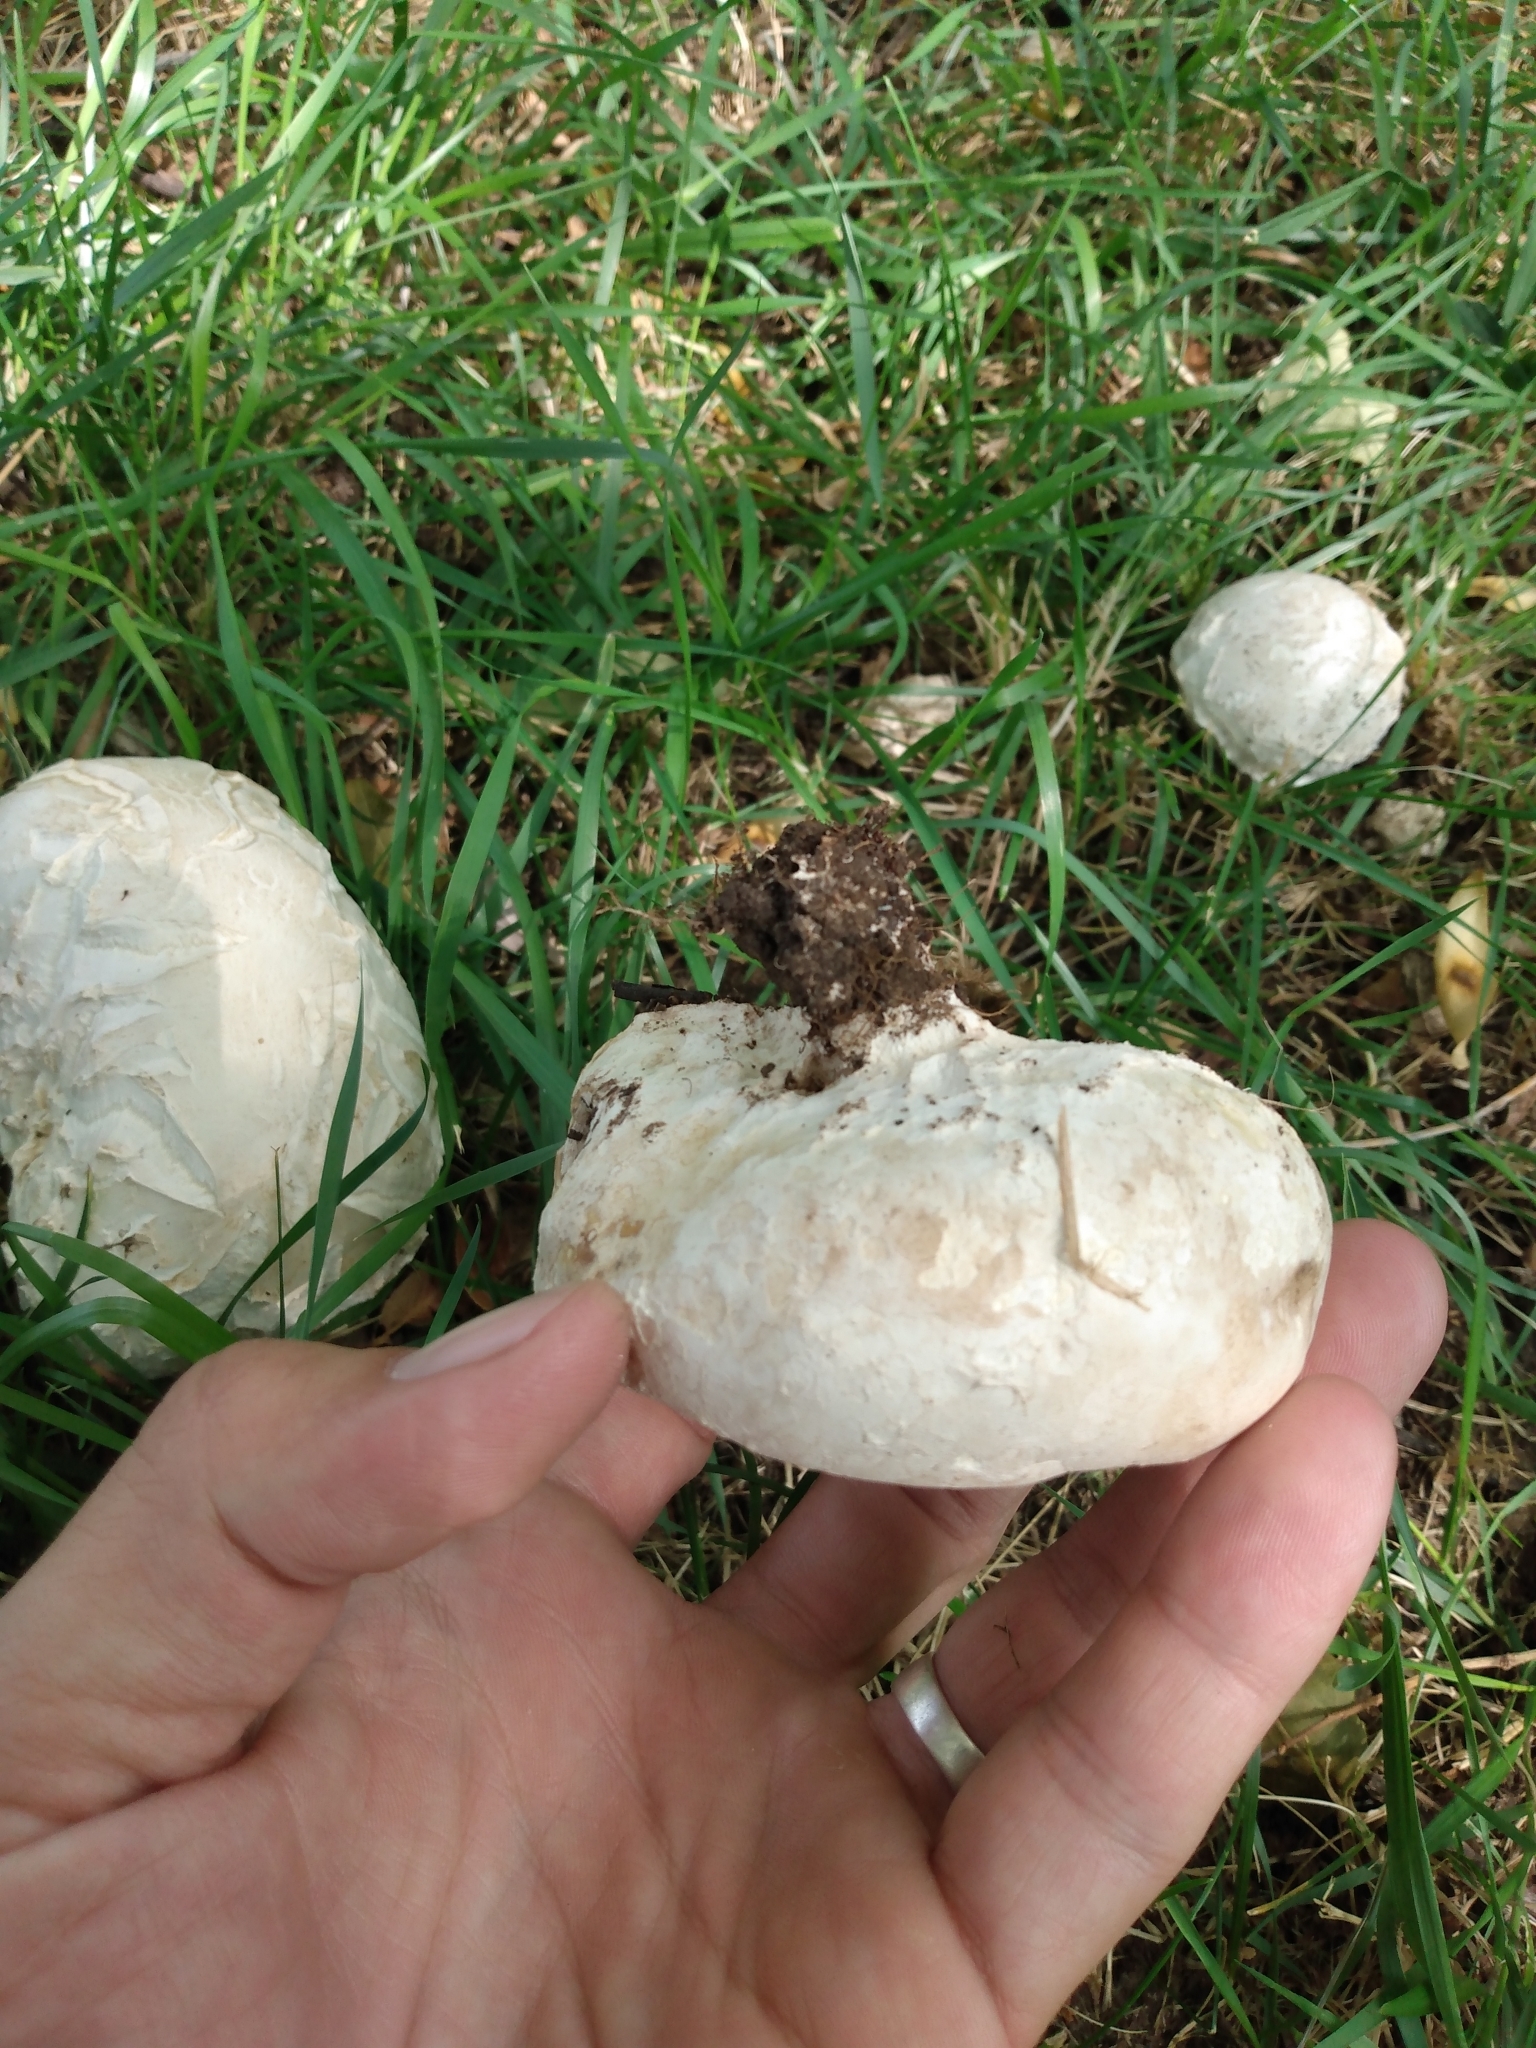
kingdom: Fungi
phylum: Basidiomycota
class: Agaricomycetes
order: Agaricales
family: Agaricaceae
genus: Mycenastrum
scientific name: Mycenastrum corium
